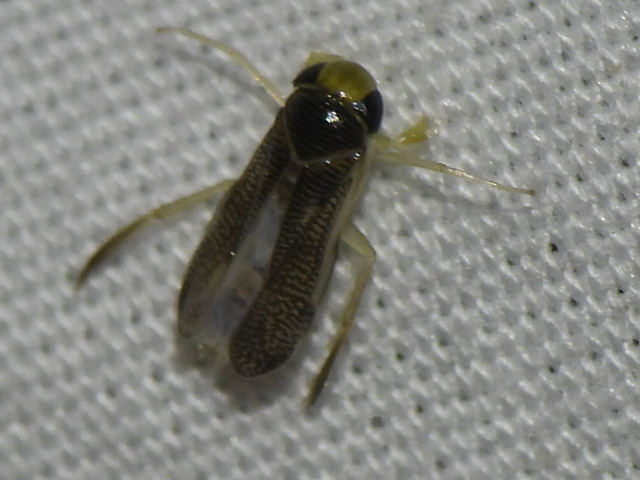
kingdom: Animalia
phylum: Arthropoda
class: Insecta
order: Hemiptera
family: Corixidae
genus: Trichocorixa
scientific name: Trichocorixa
